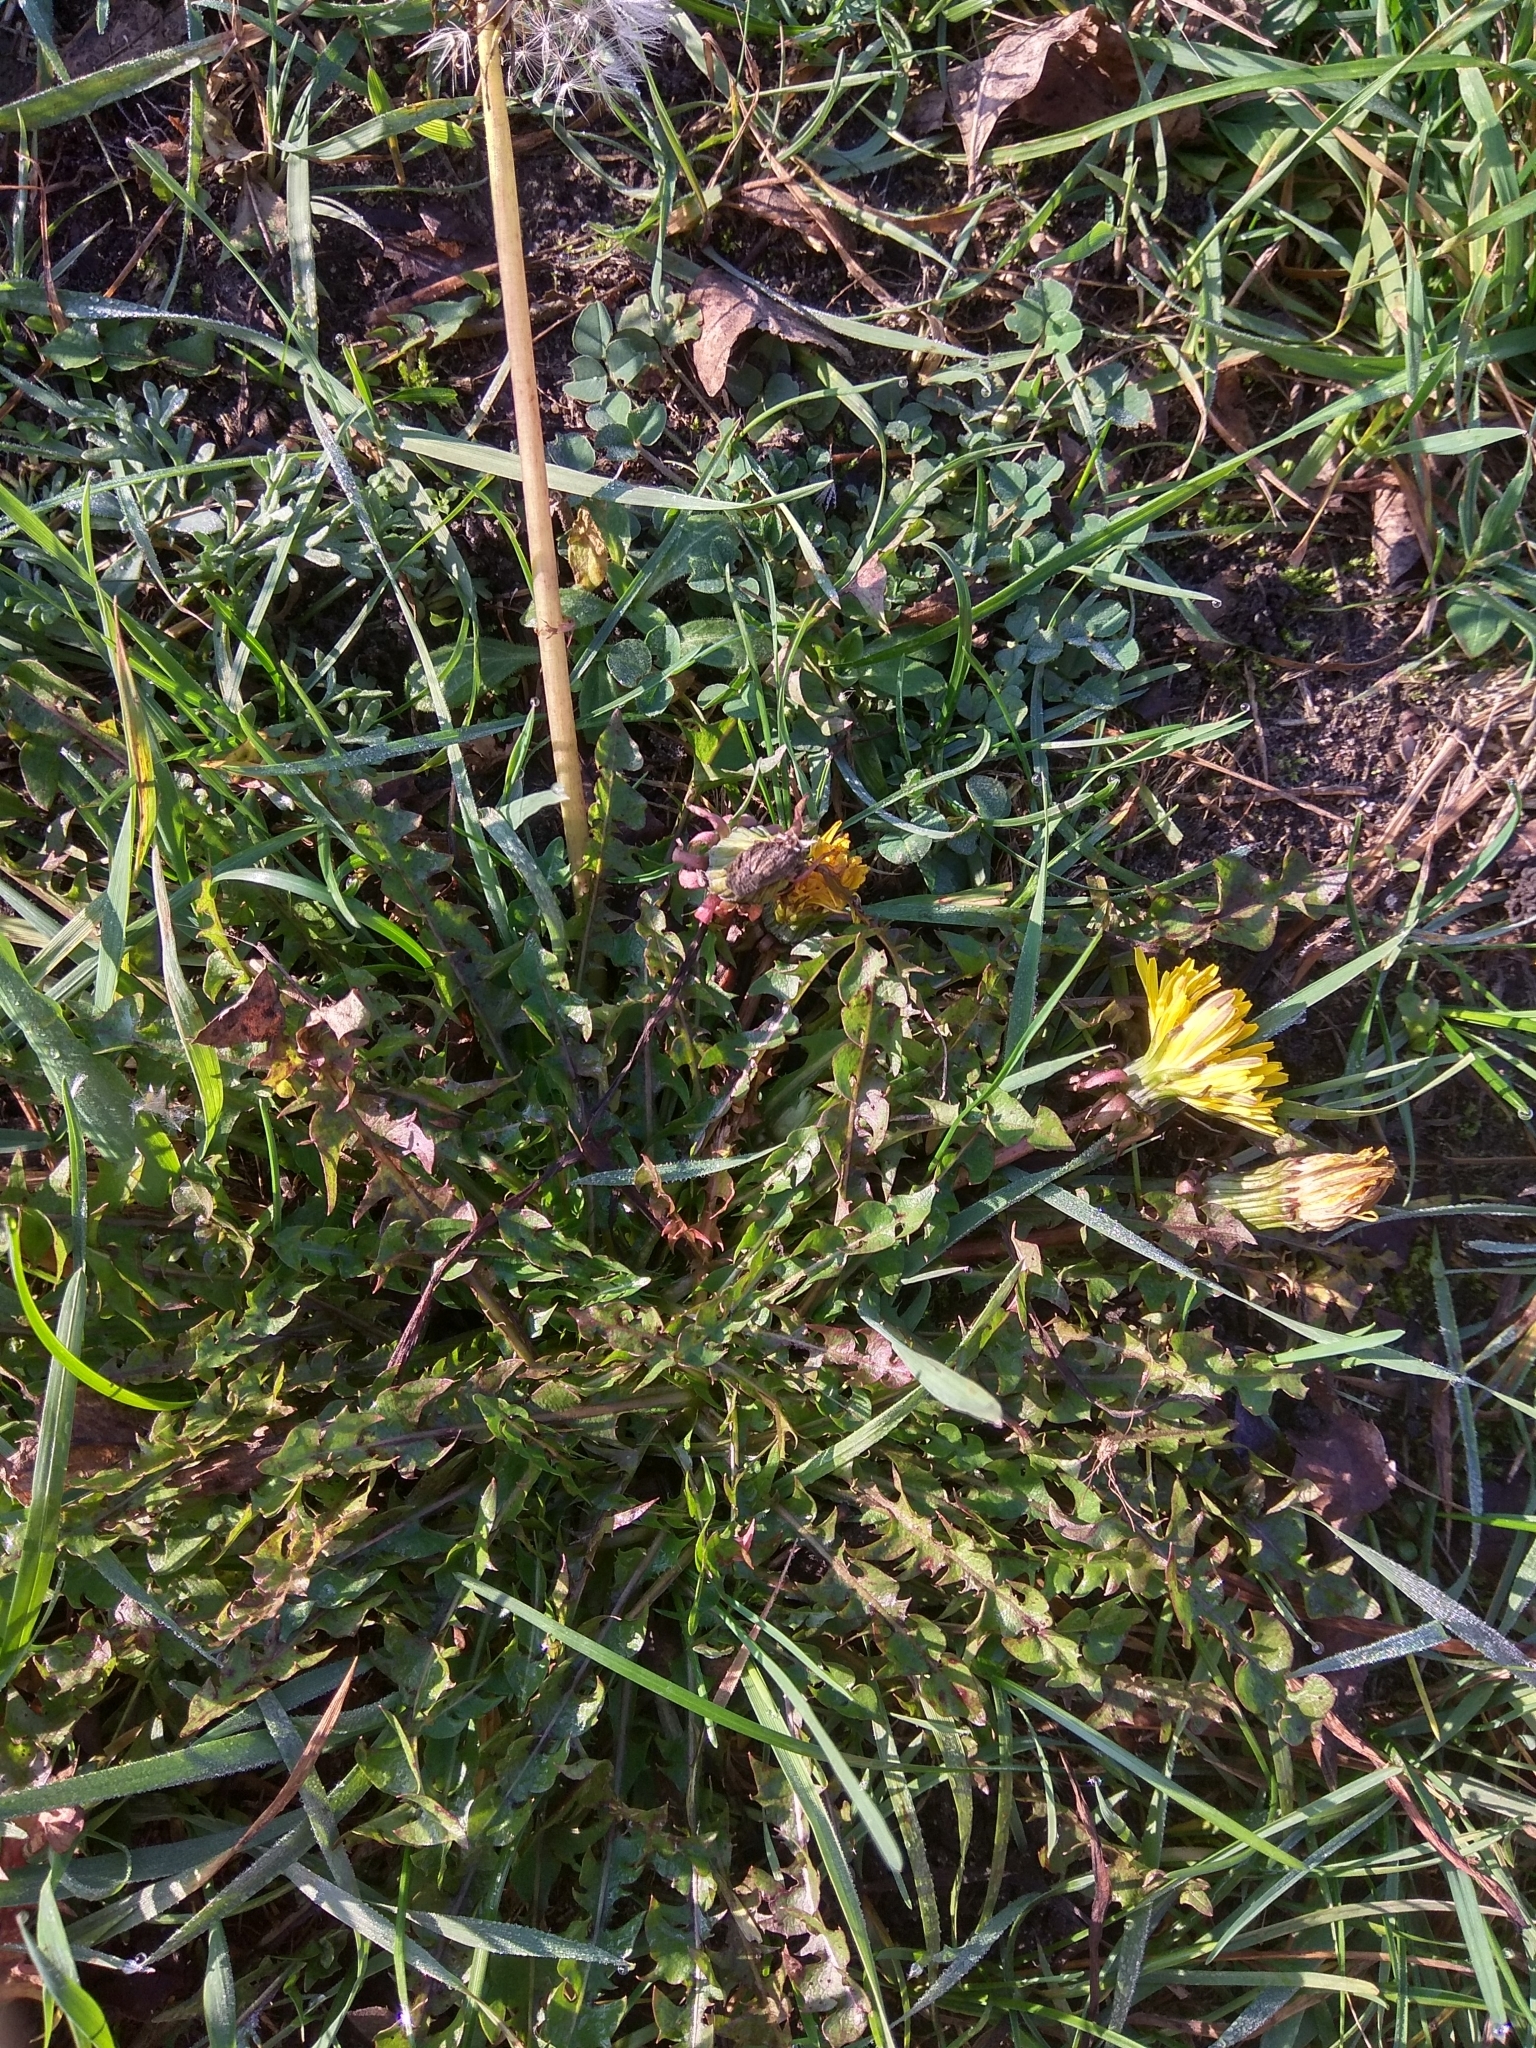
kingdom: Plantae
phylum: Tracheophyta
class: Magnoliopsida
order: Asterales
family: Asteraceae
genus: Taraxacum
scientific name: Taraxacum officinale
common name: Common dandelion
